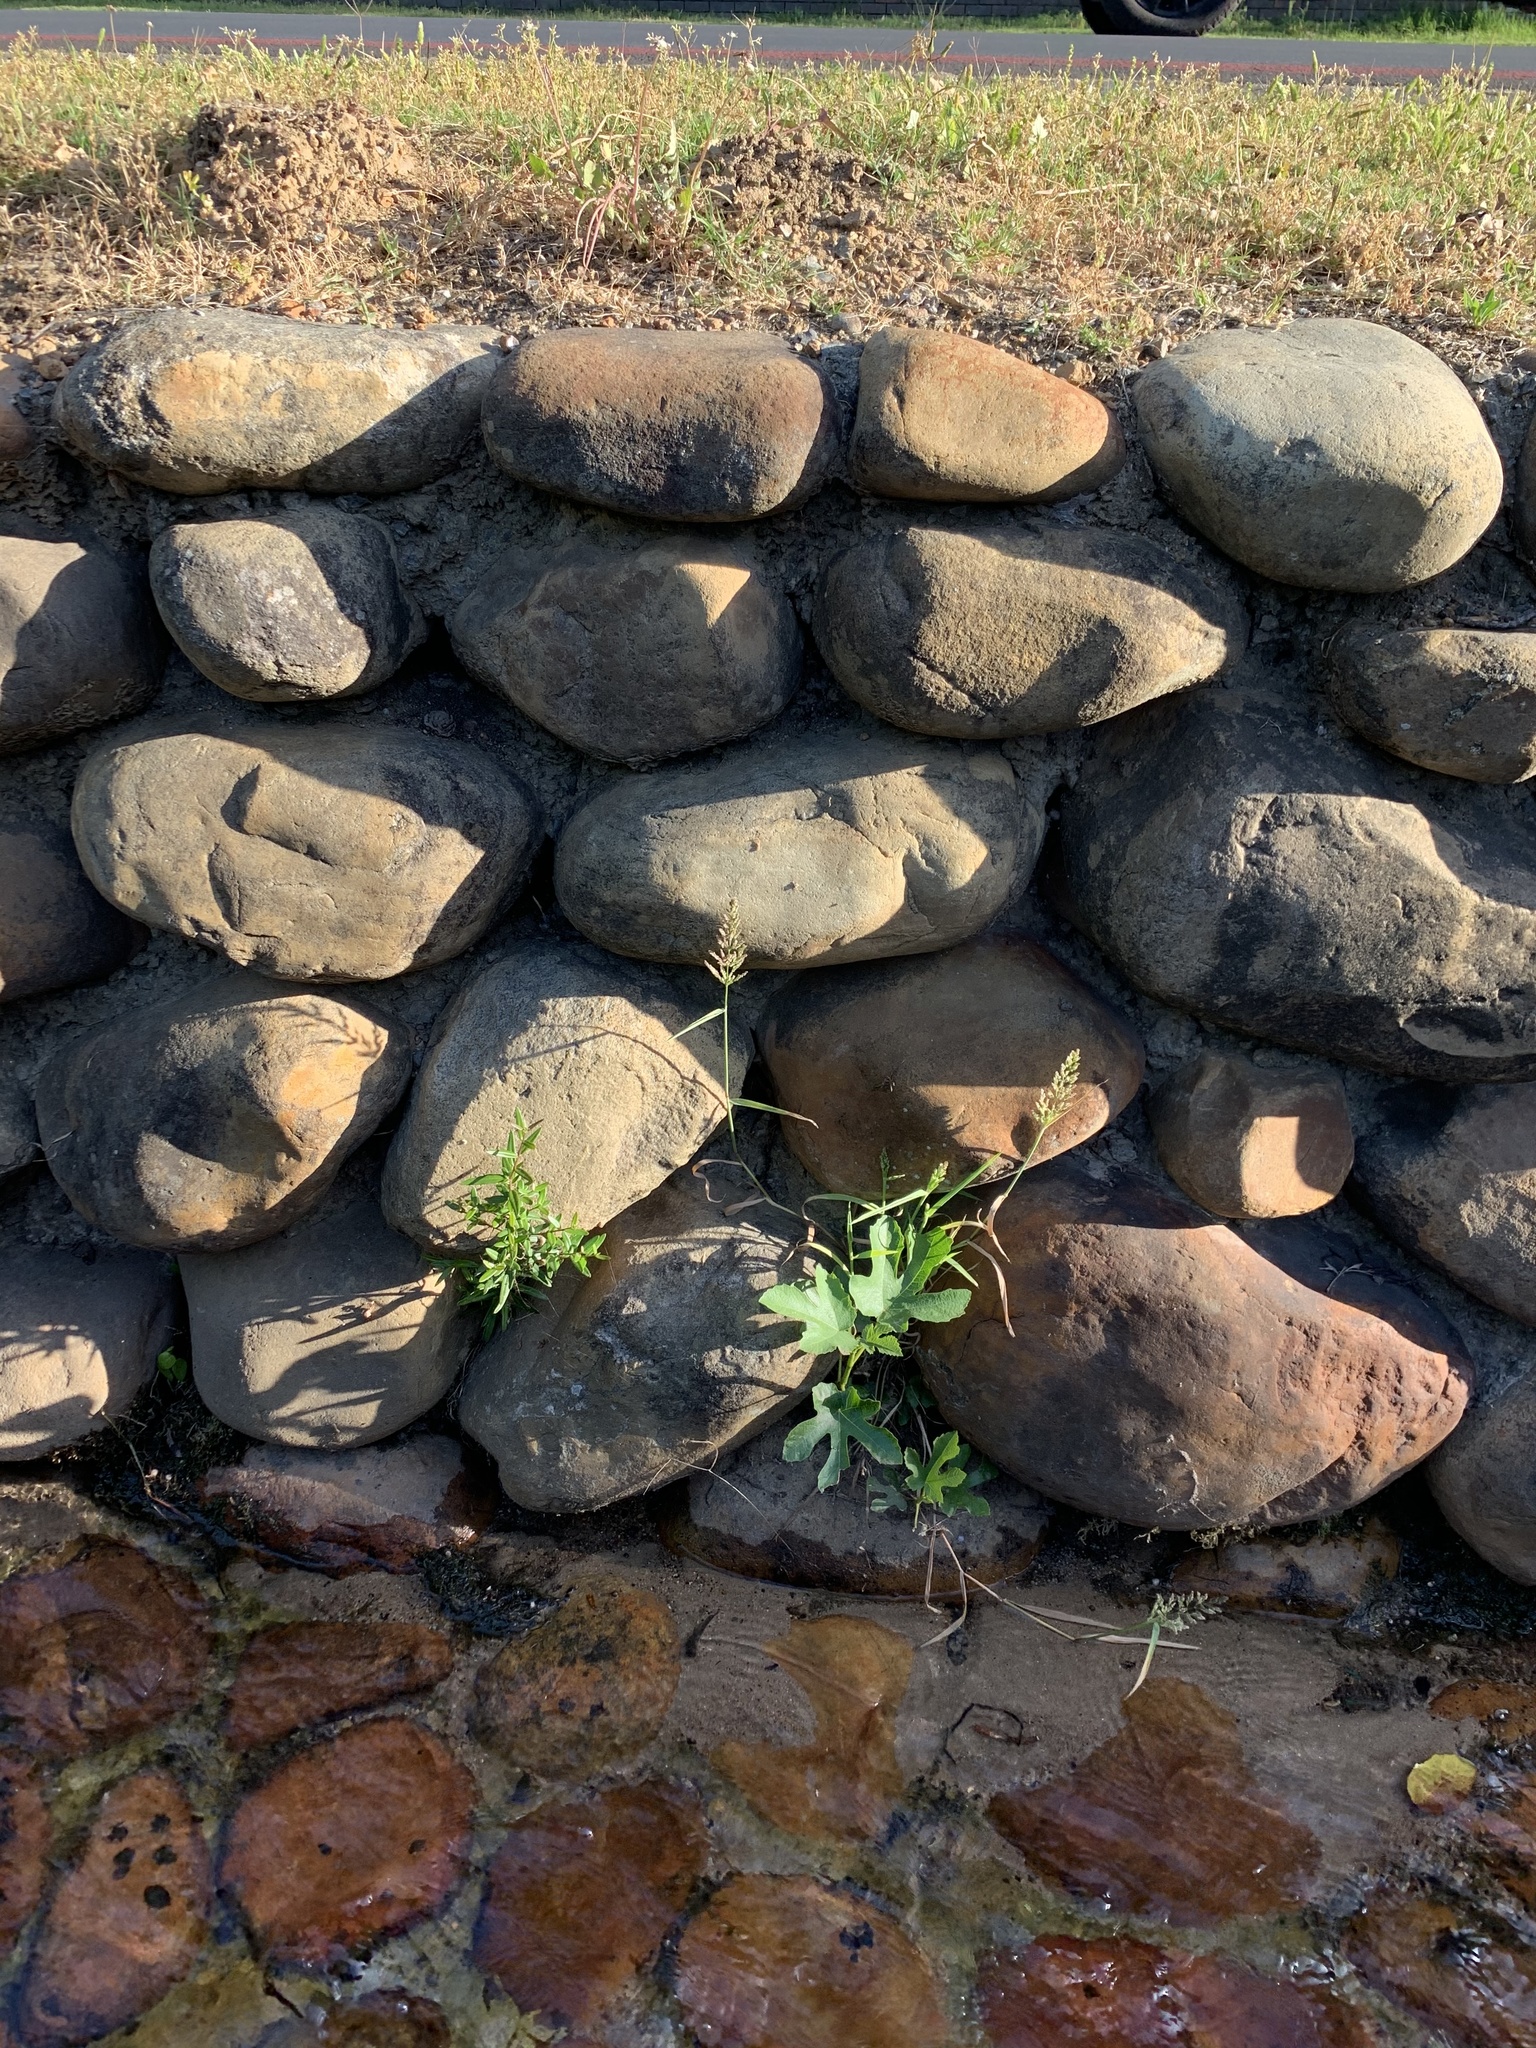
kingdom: Plantae
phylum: Tracheophyta
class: Magnoliopsida
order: Rosales
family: Moraceae
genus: Ficus
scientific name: Ficus carica
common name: Fig
